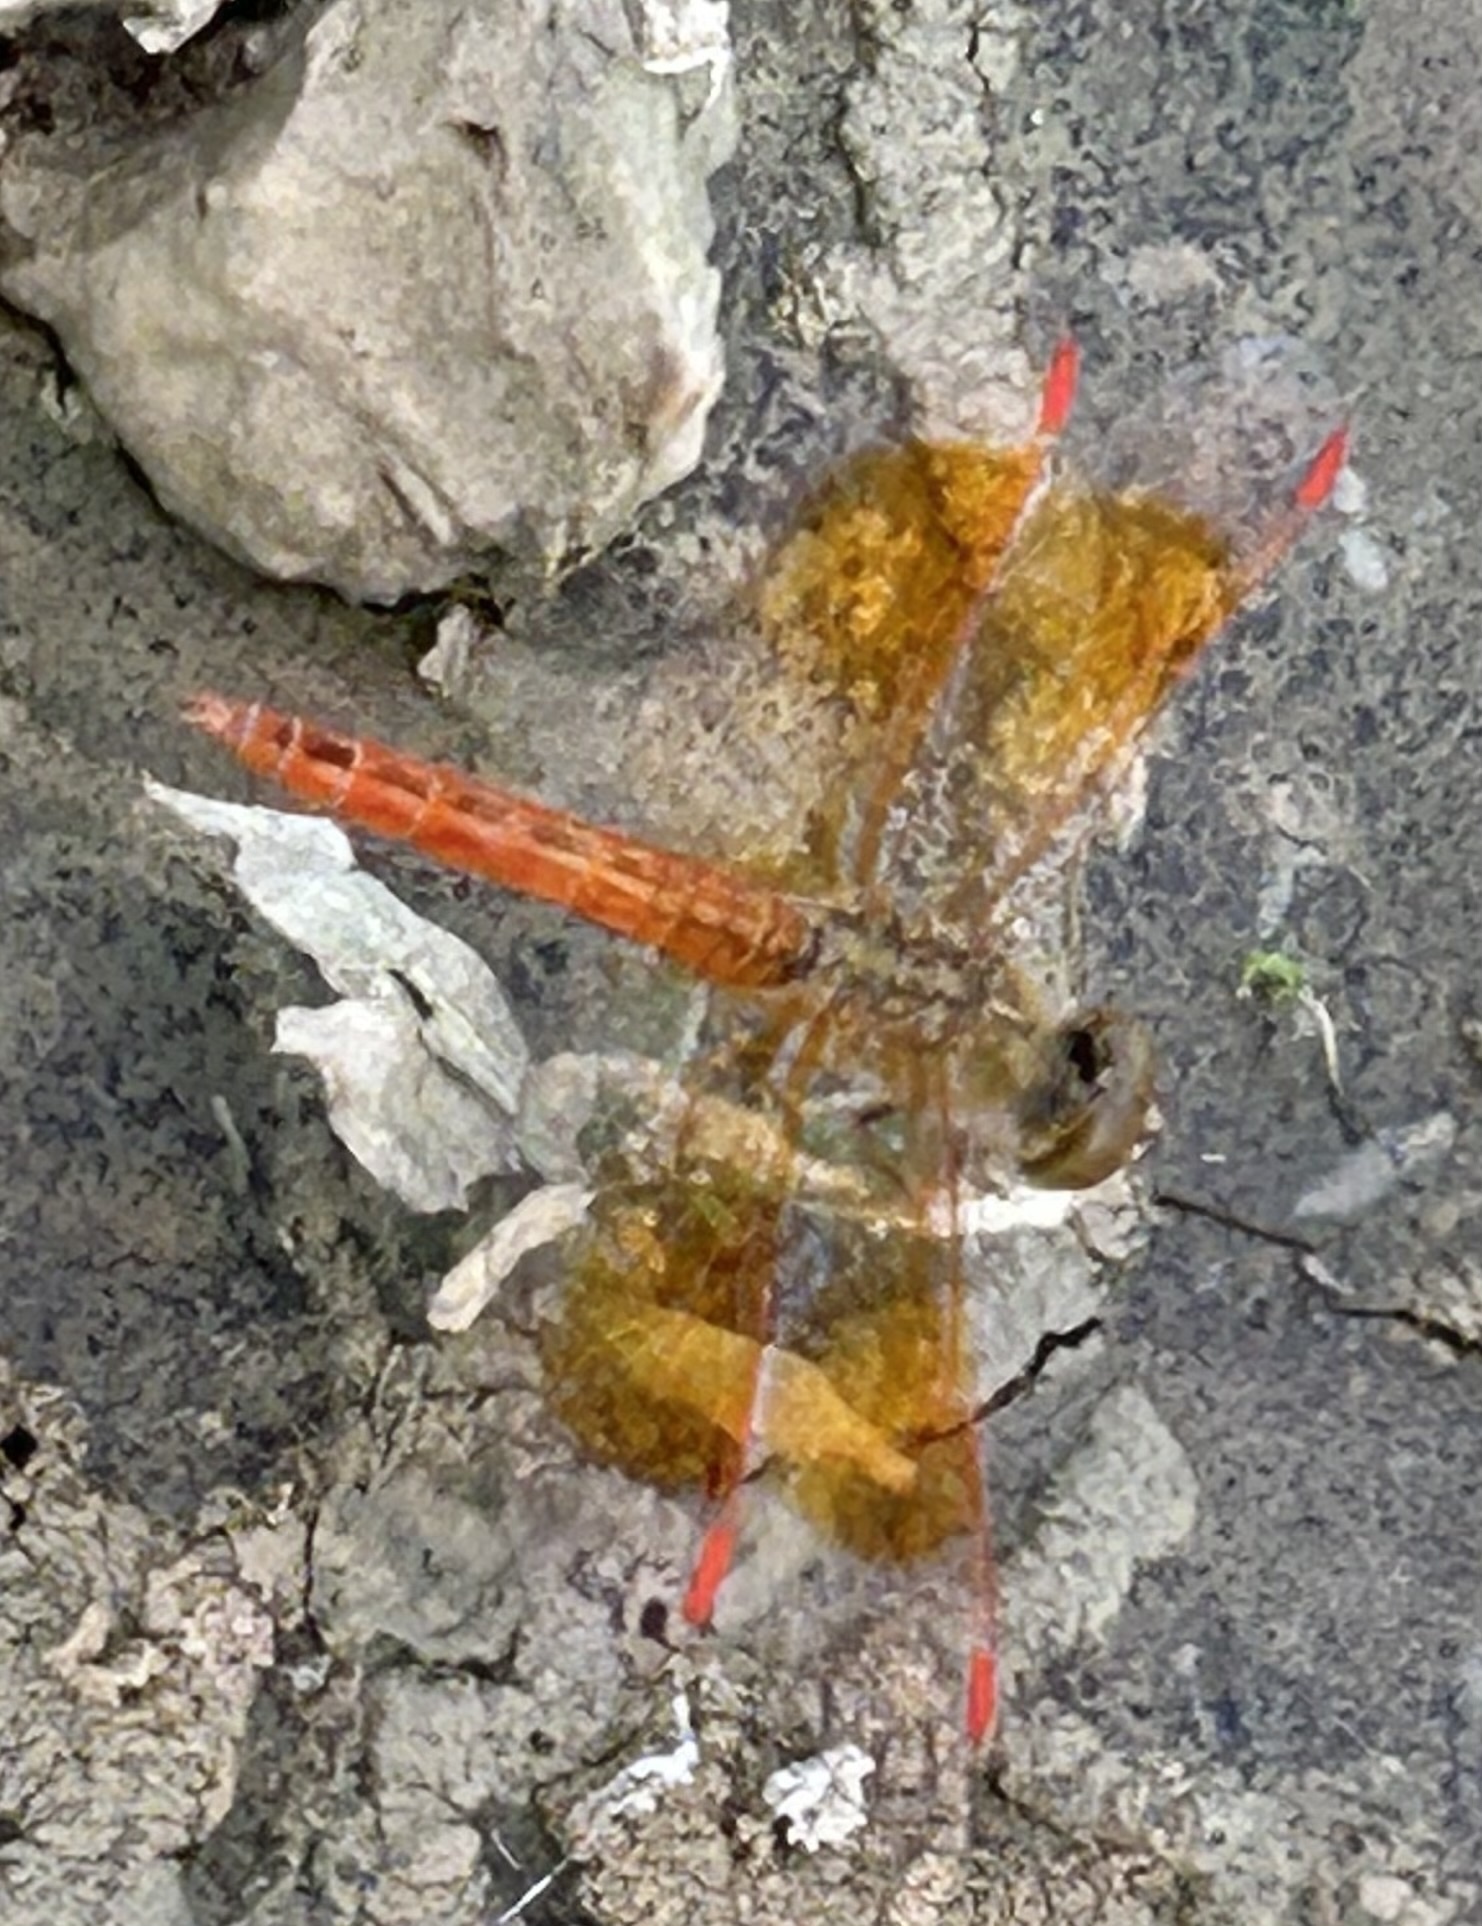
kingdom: Animalia
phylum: Arthropoda
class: Insecta
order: Odonata
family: Libellulidae
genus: Brachythemis
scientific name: Brachythemis contaminata
